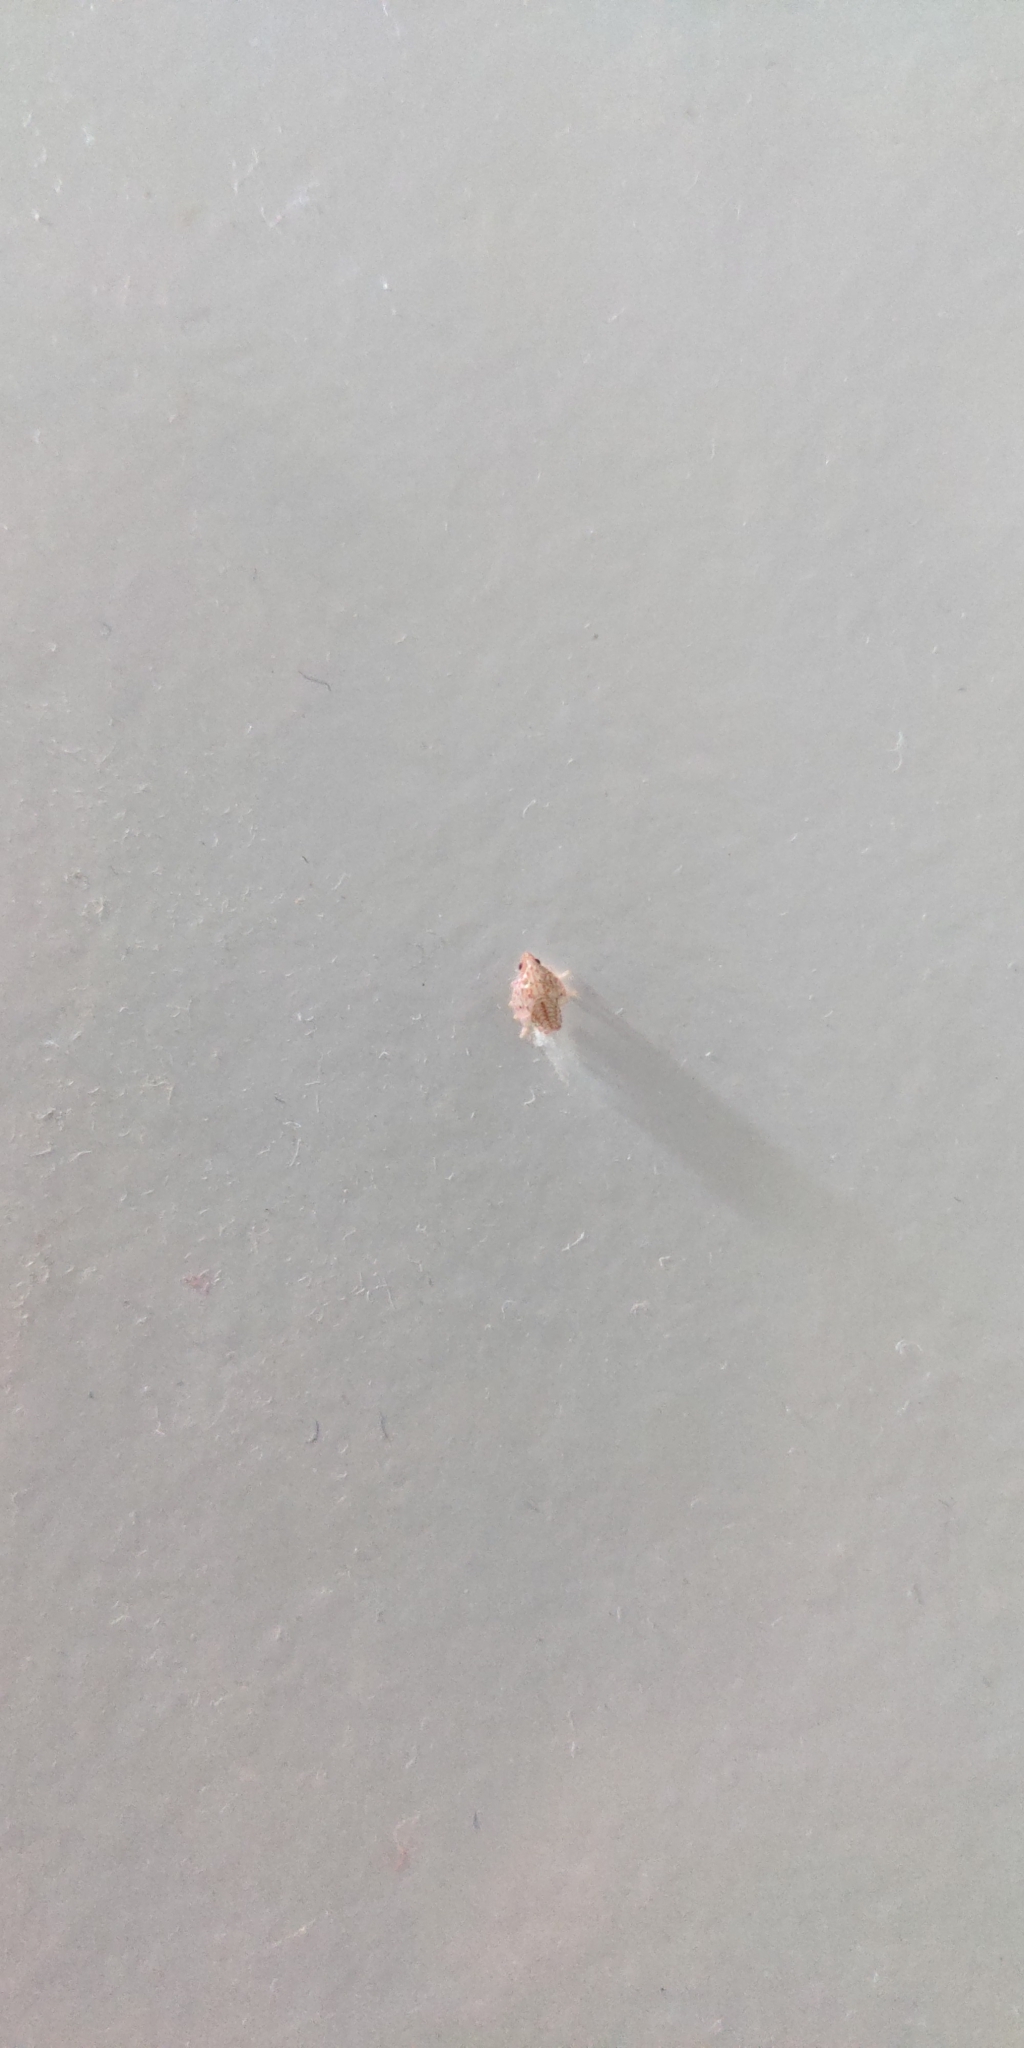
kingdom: Animalia
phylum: Arthropoda
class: Insecta
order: Hemiptera
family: Ricaniidae
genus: Scolypopa
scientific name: Scolypopa australis
